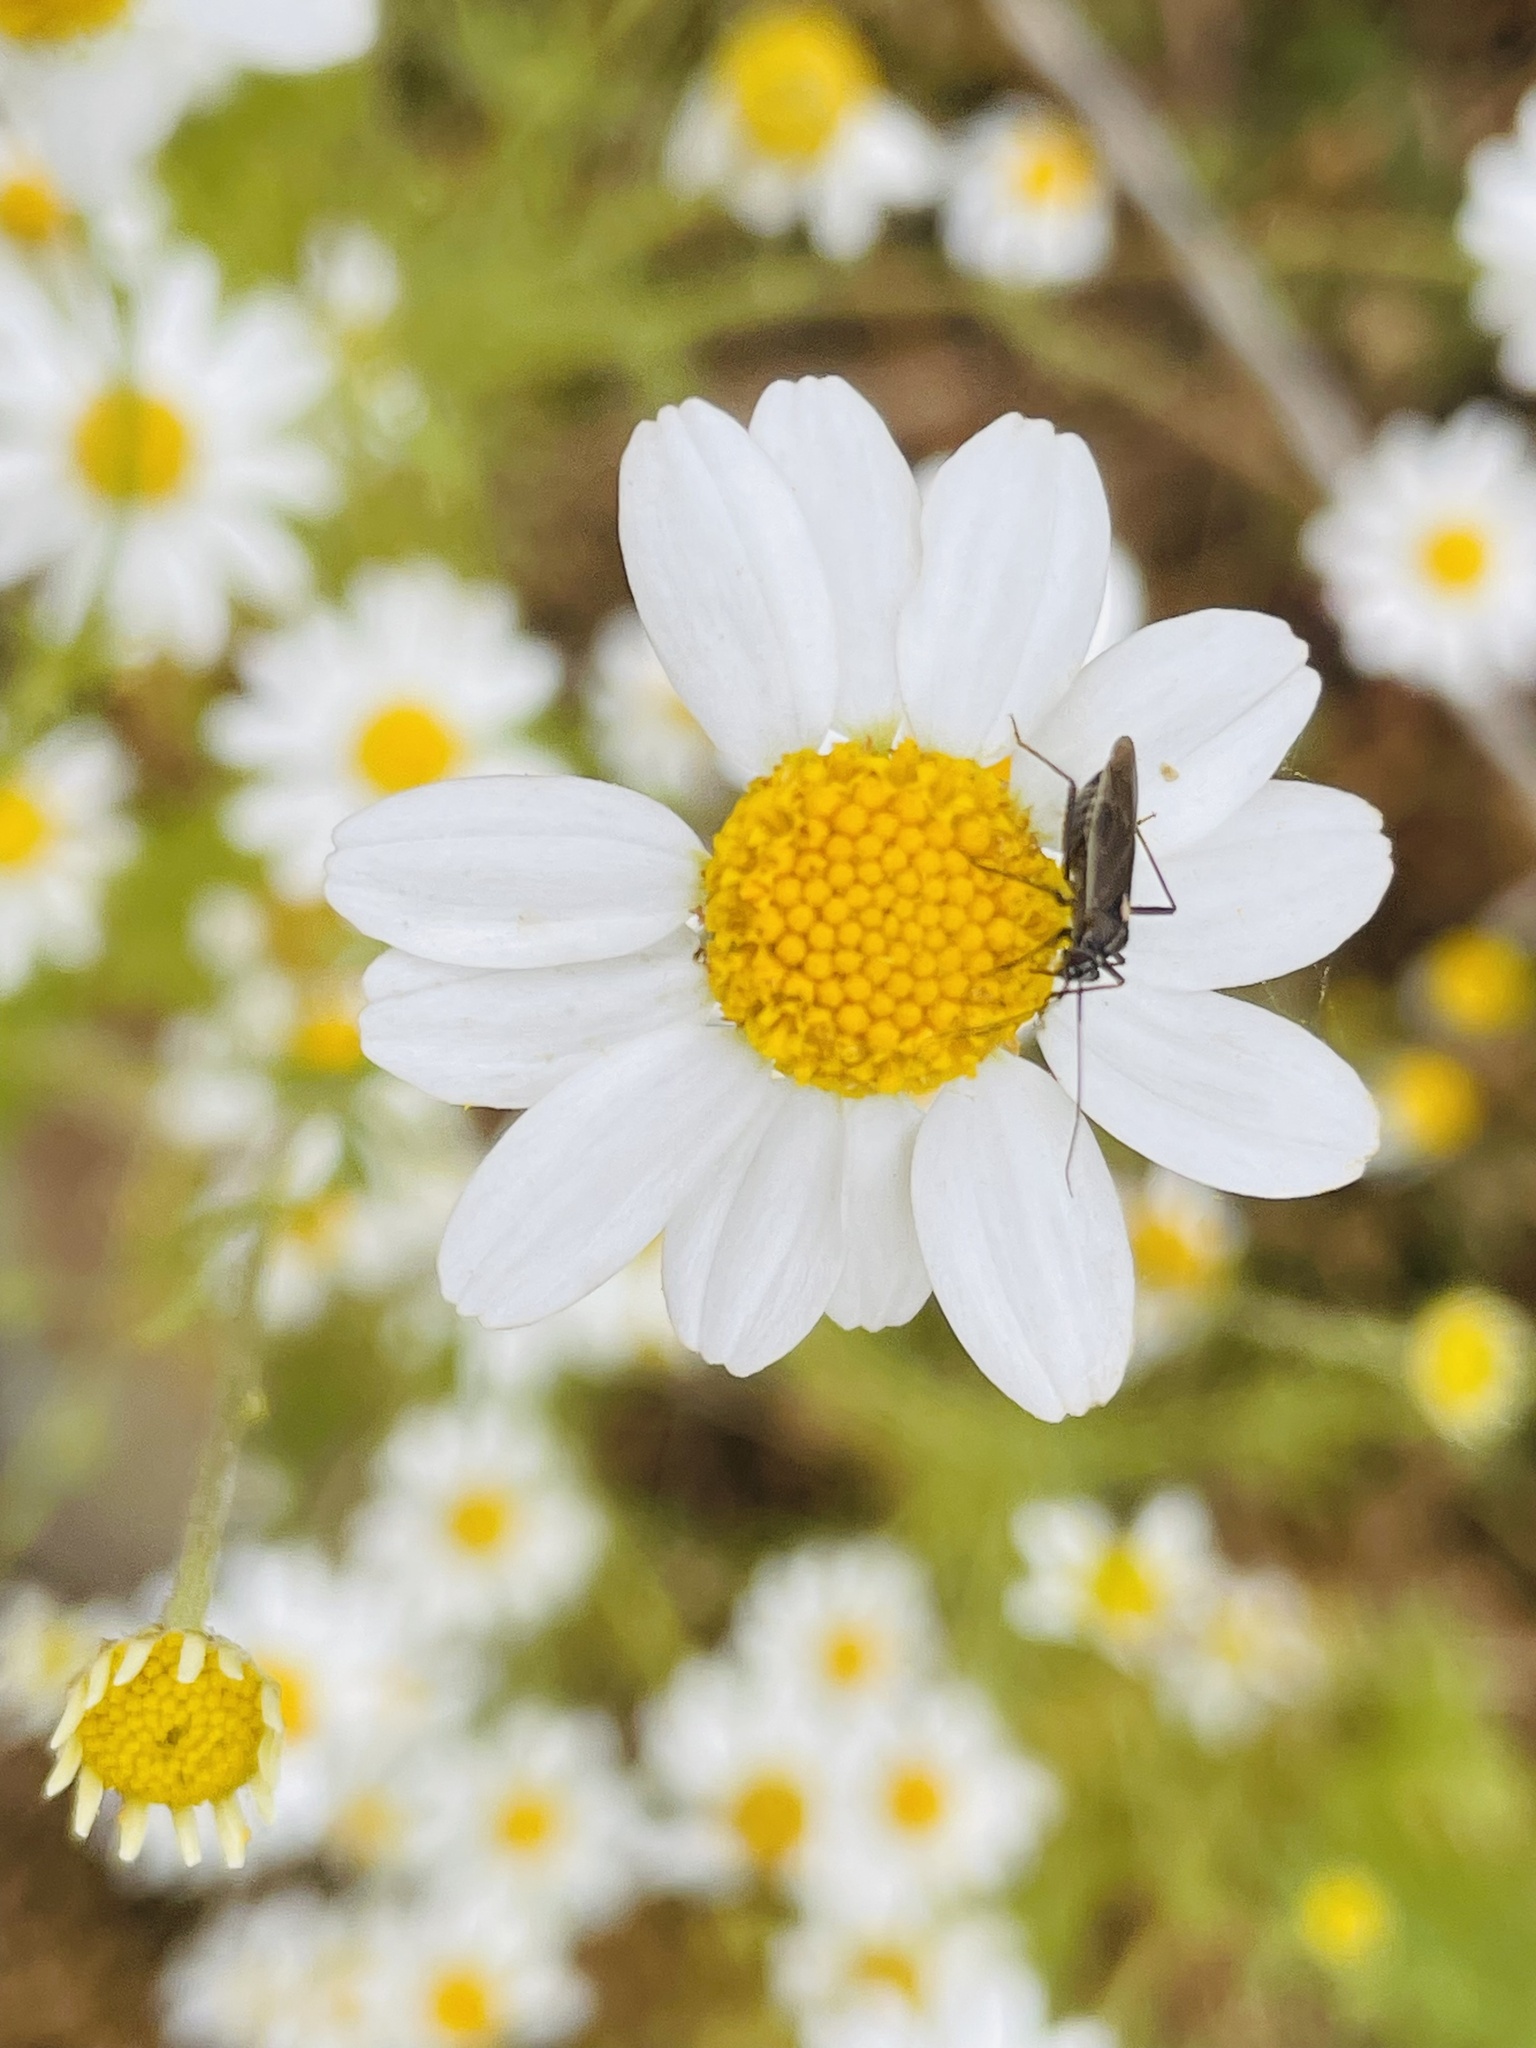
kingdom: Animalia
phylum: Arthropoda
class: Insecta
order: Hemiptera
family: Miridae
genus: Stenoparedra
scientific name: Stenoparedra
